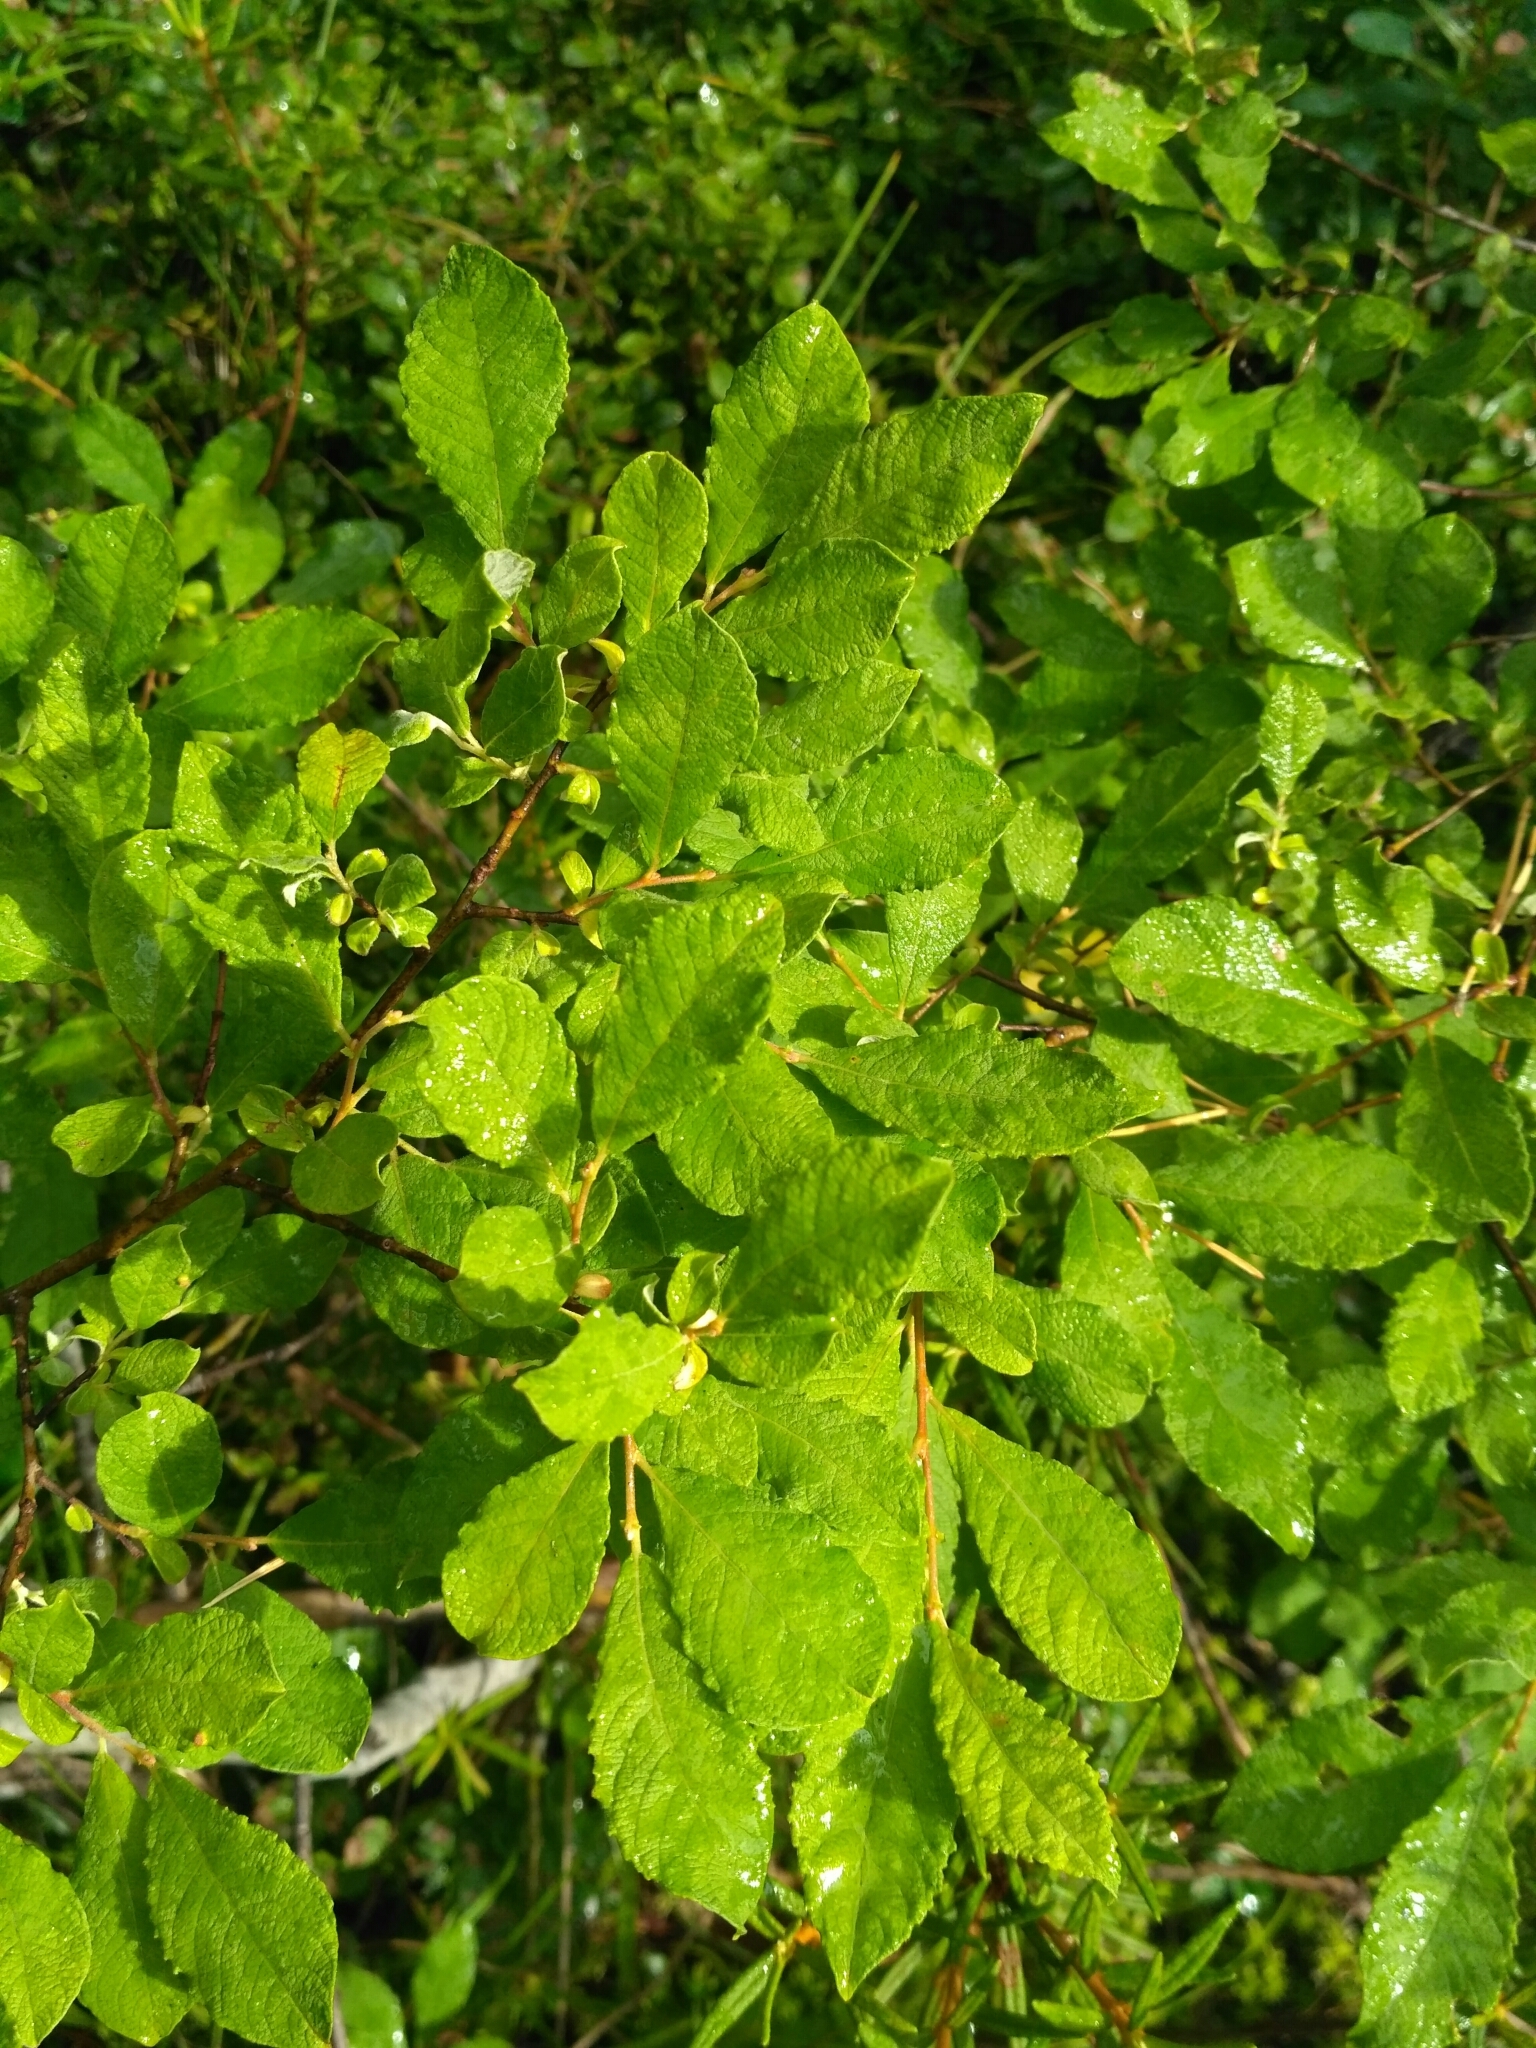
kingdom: Plantae
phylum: Tracheophyta
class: Magnoliopsida
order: Malpighiales
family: Salicaceae
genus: Salix
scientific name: Salix aurita
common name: Eared willow
